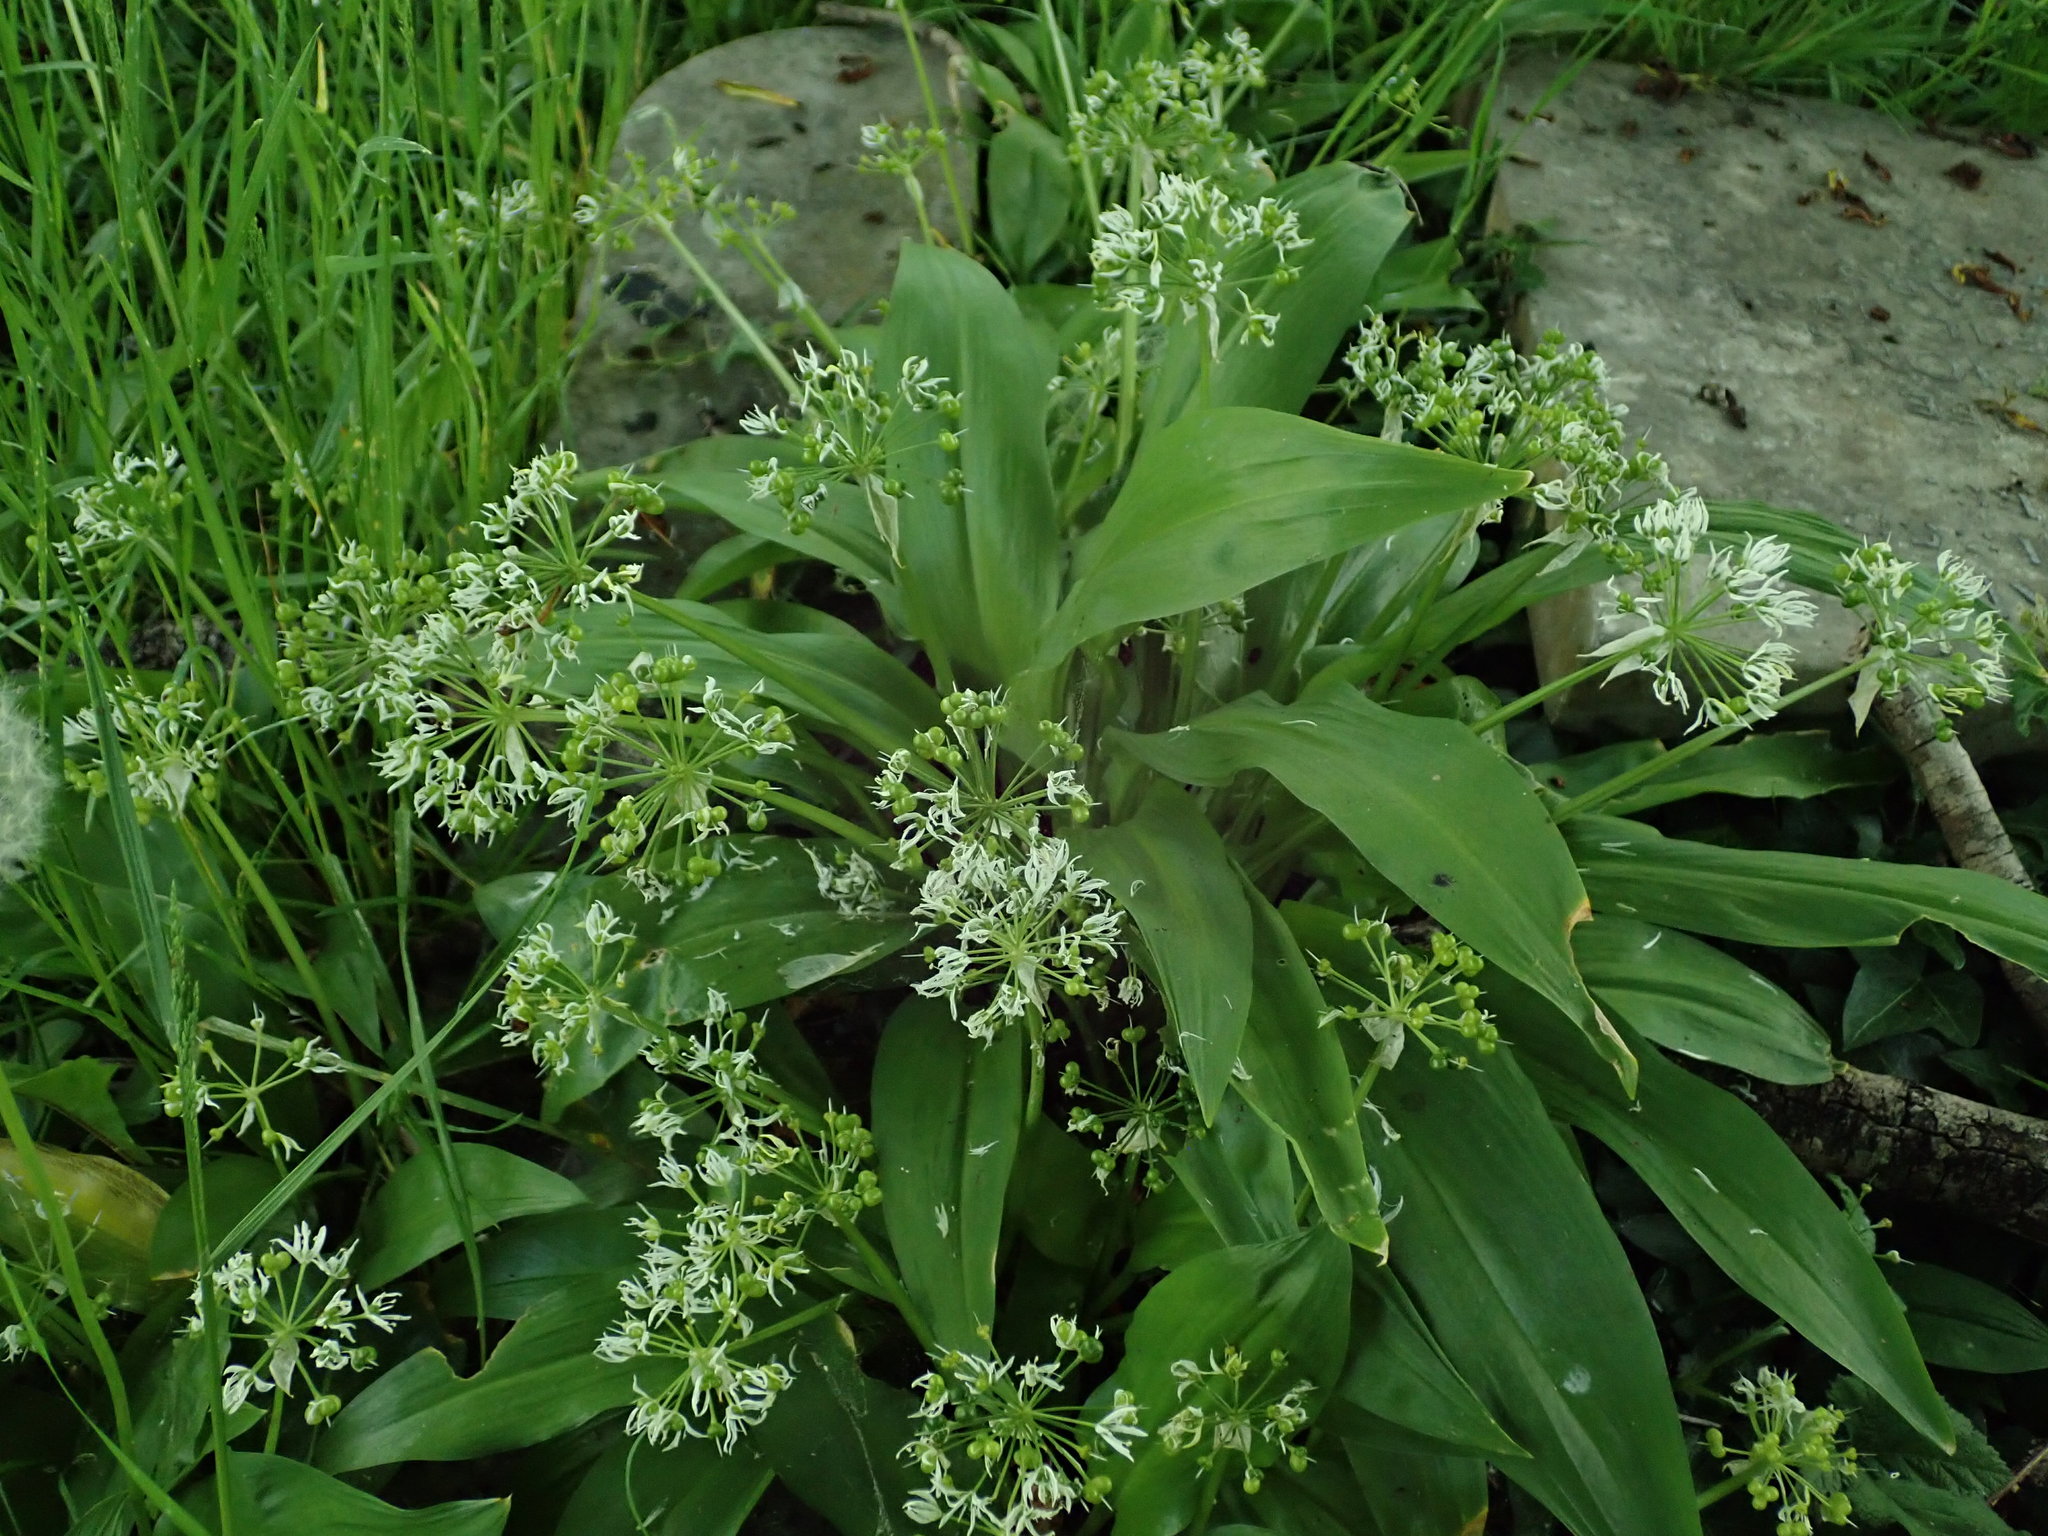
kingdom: Plantae
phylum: Tracheophyta
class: Liliopsida
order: Asparagales
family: Amaryllidaceae
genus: Allium
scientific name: Allium ursinum
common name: Ramsons
